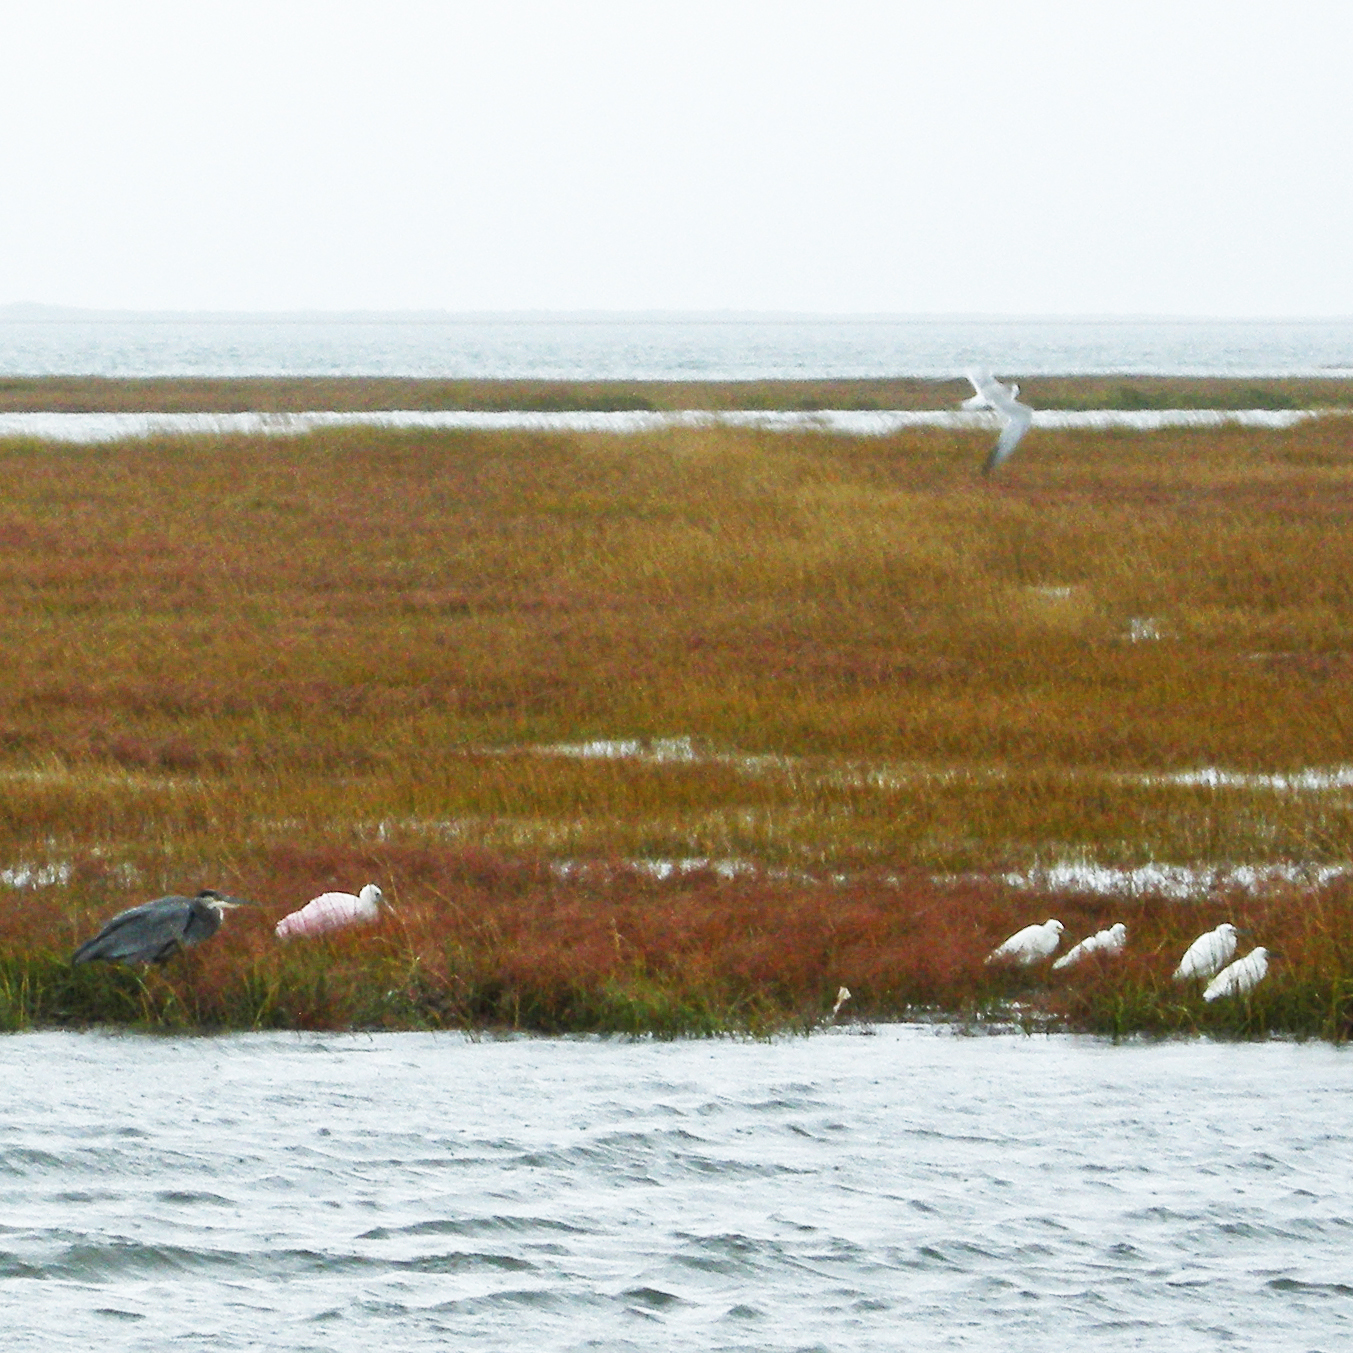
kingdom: Animalia
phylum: Chordata
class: Aves
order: Pelecaniformes
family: Threskiornithidae
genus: Platalea
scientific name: Platalea ajaja
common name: Roseate spoonbill
